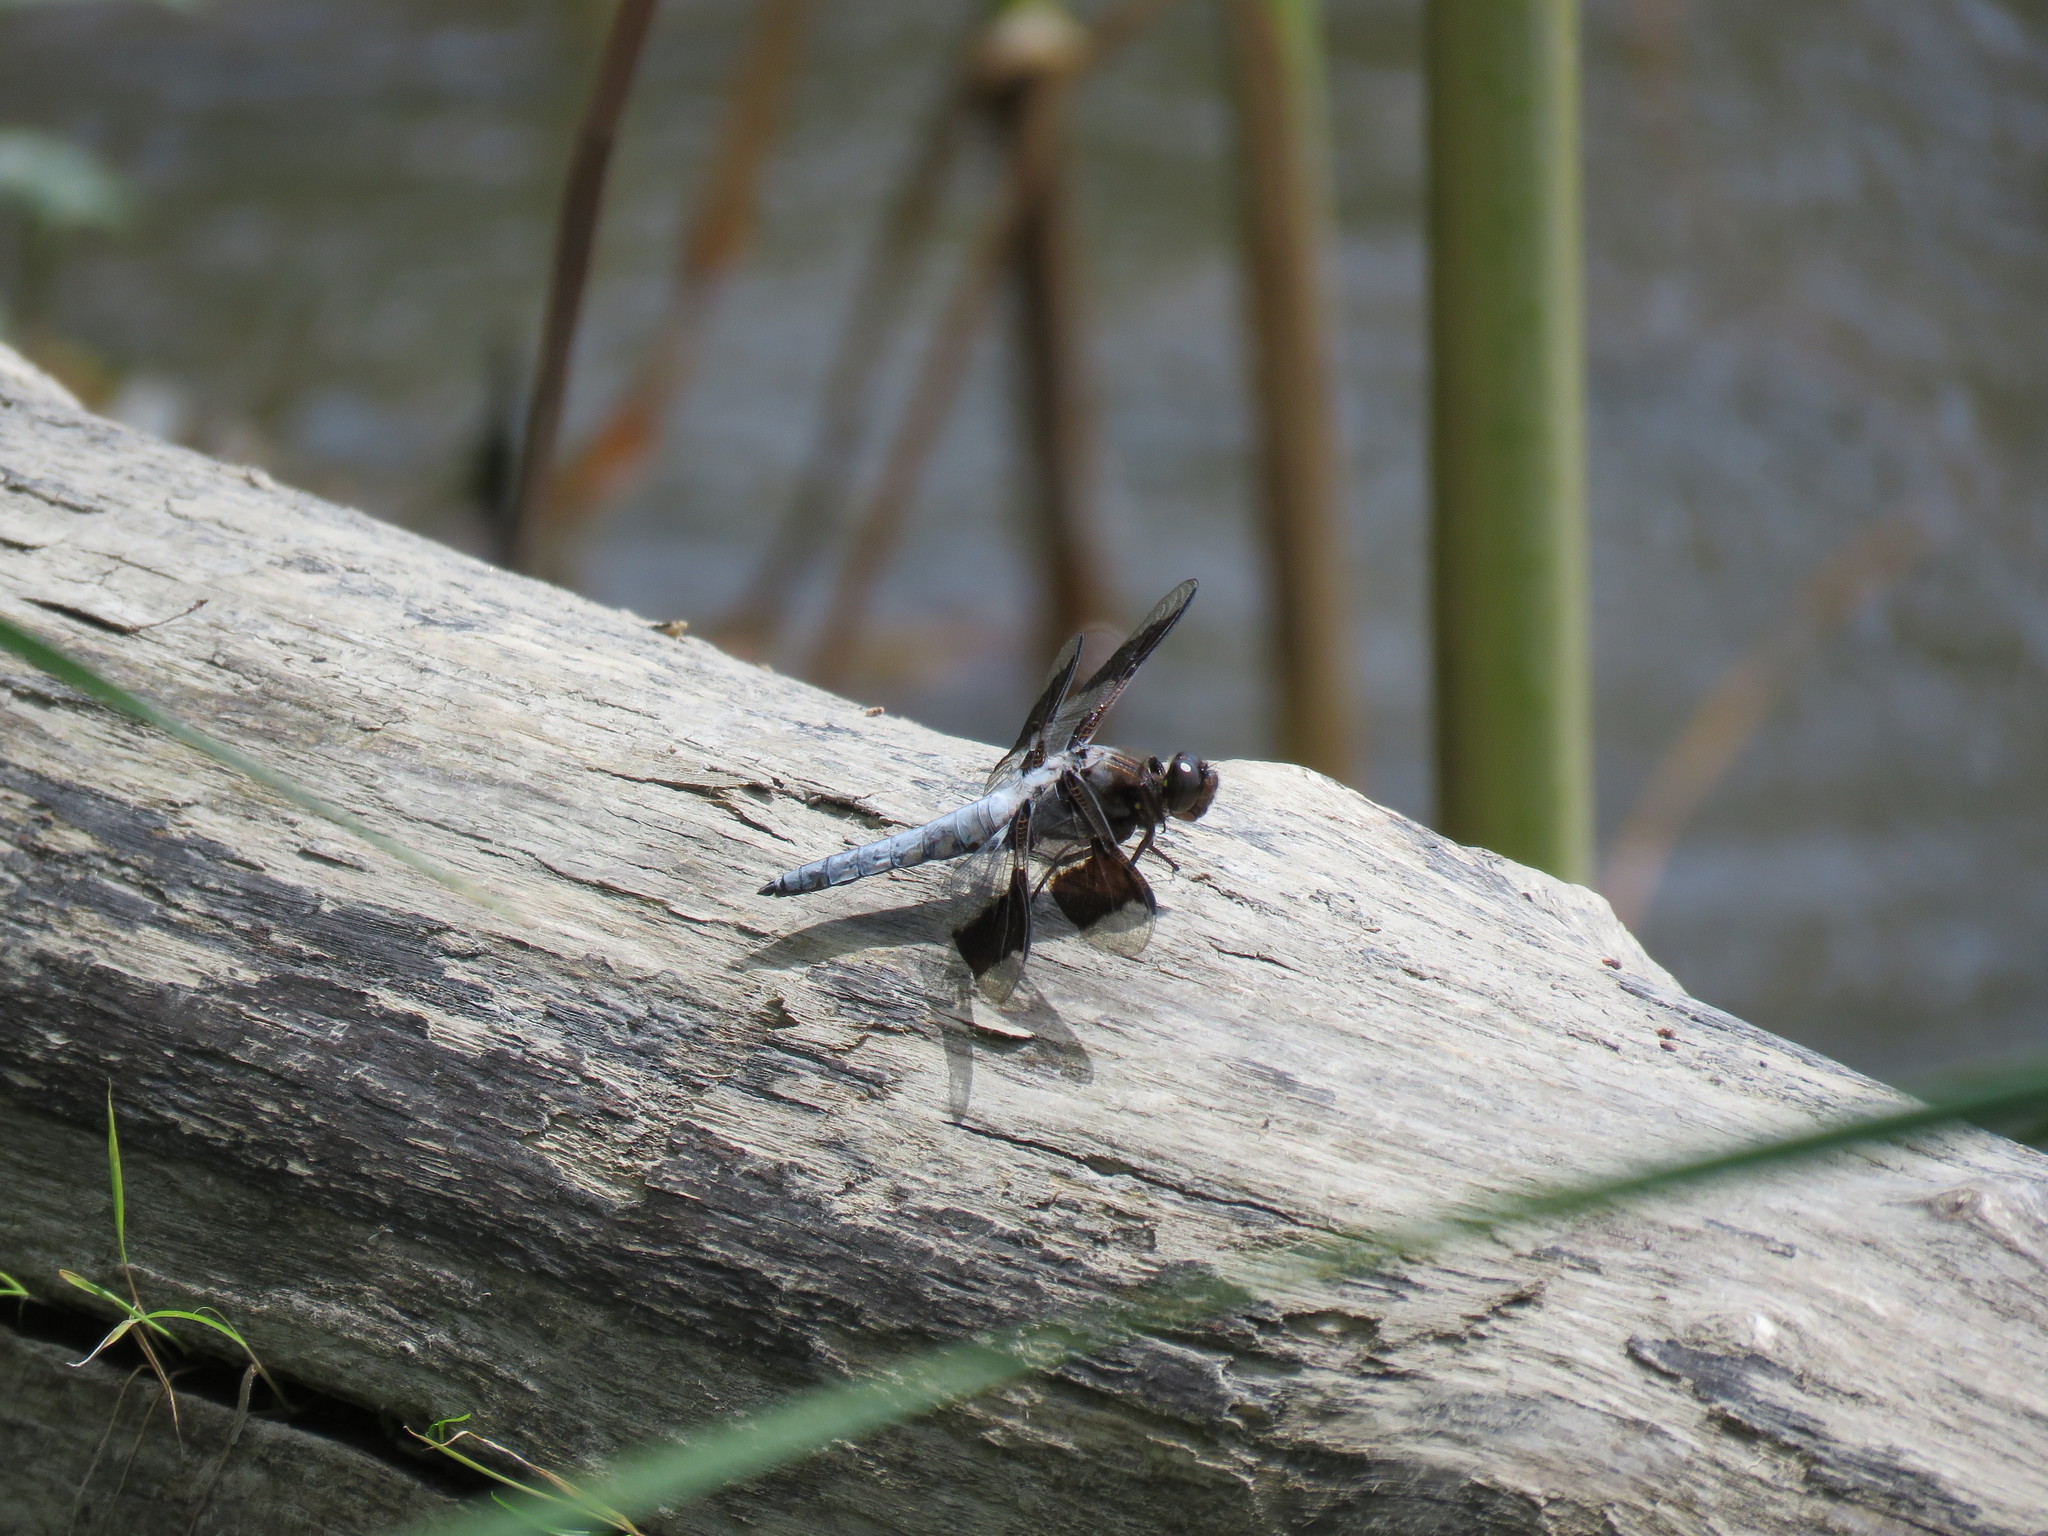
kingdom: Animalia
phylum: Arthropoda
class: Insecta
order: Odonata
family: Libellulidae
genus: Plathemis
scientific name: Plathemis lydia
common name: Common whitetail
